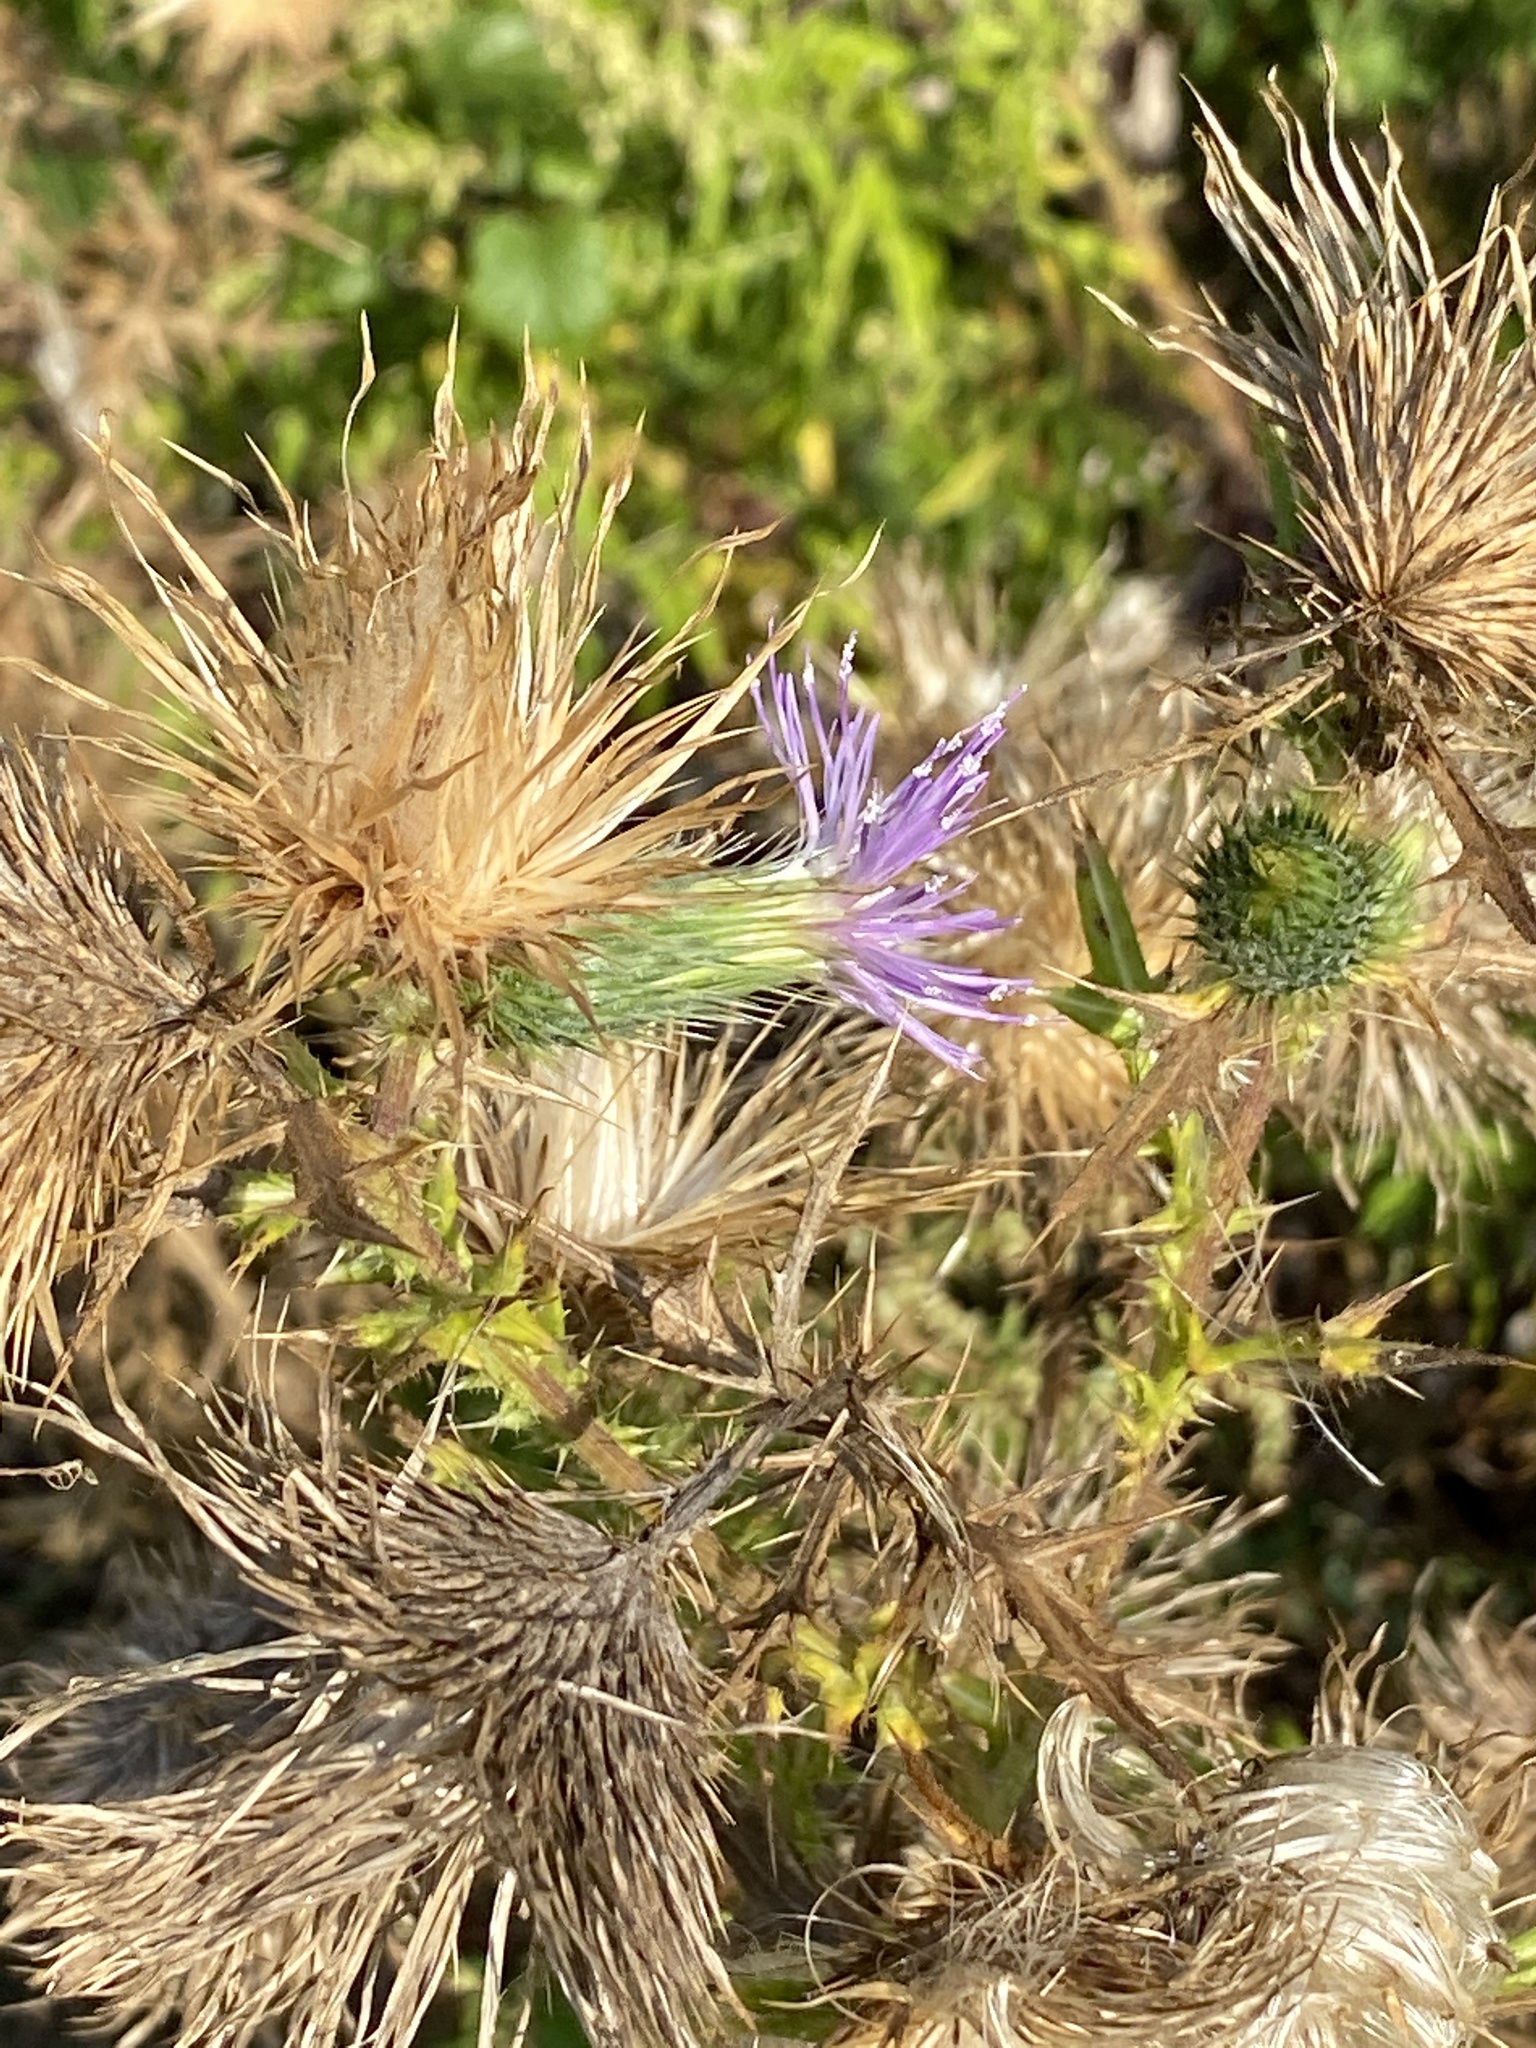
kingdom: Plantae
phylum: Tracheophyta
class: Magnoliopsida
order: Asterales
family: Asteraceae
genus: Cirsium
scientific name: Cirsium vulgare
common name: Bull thistle
